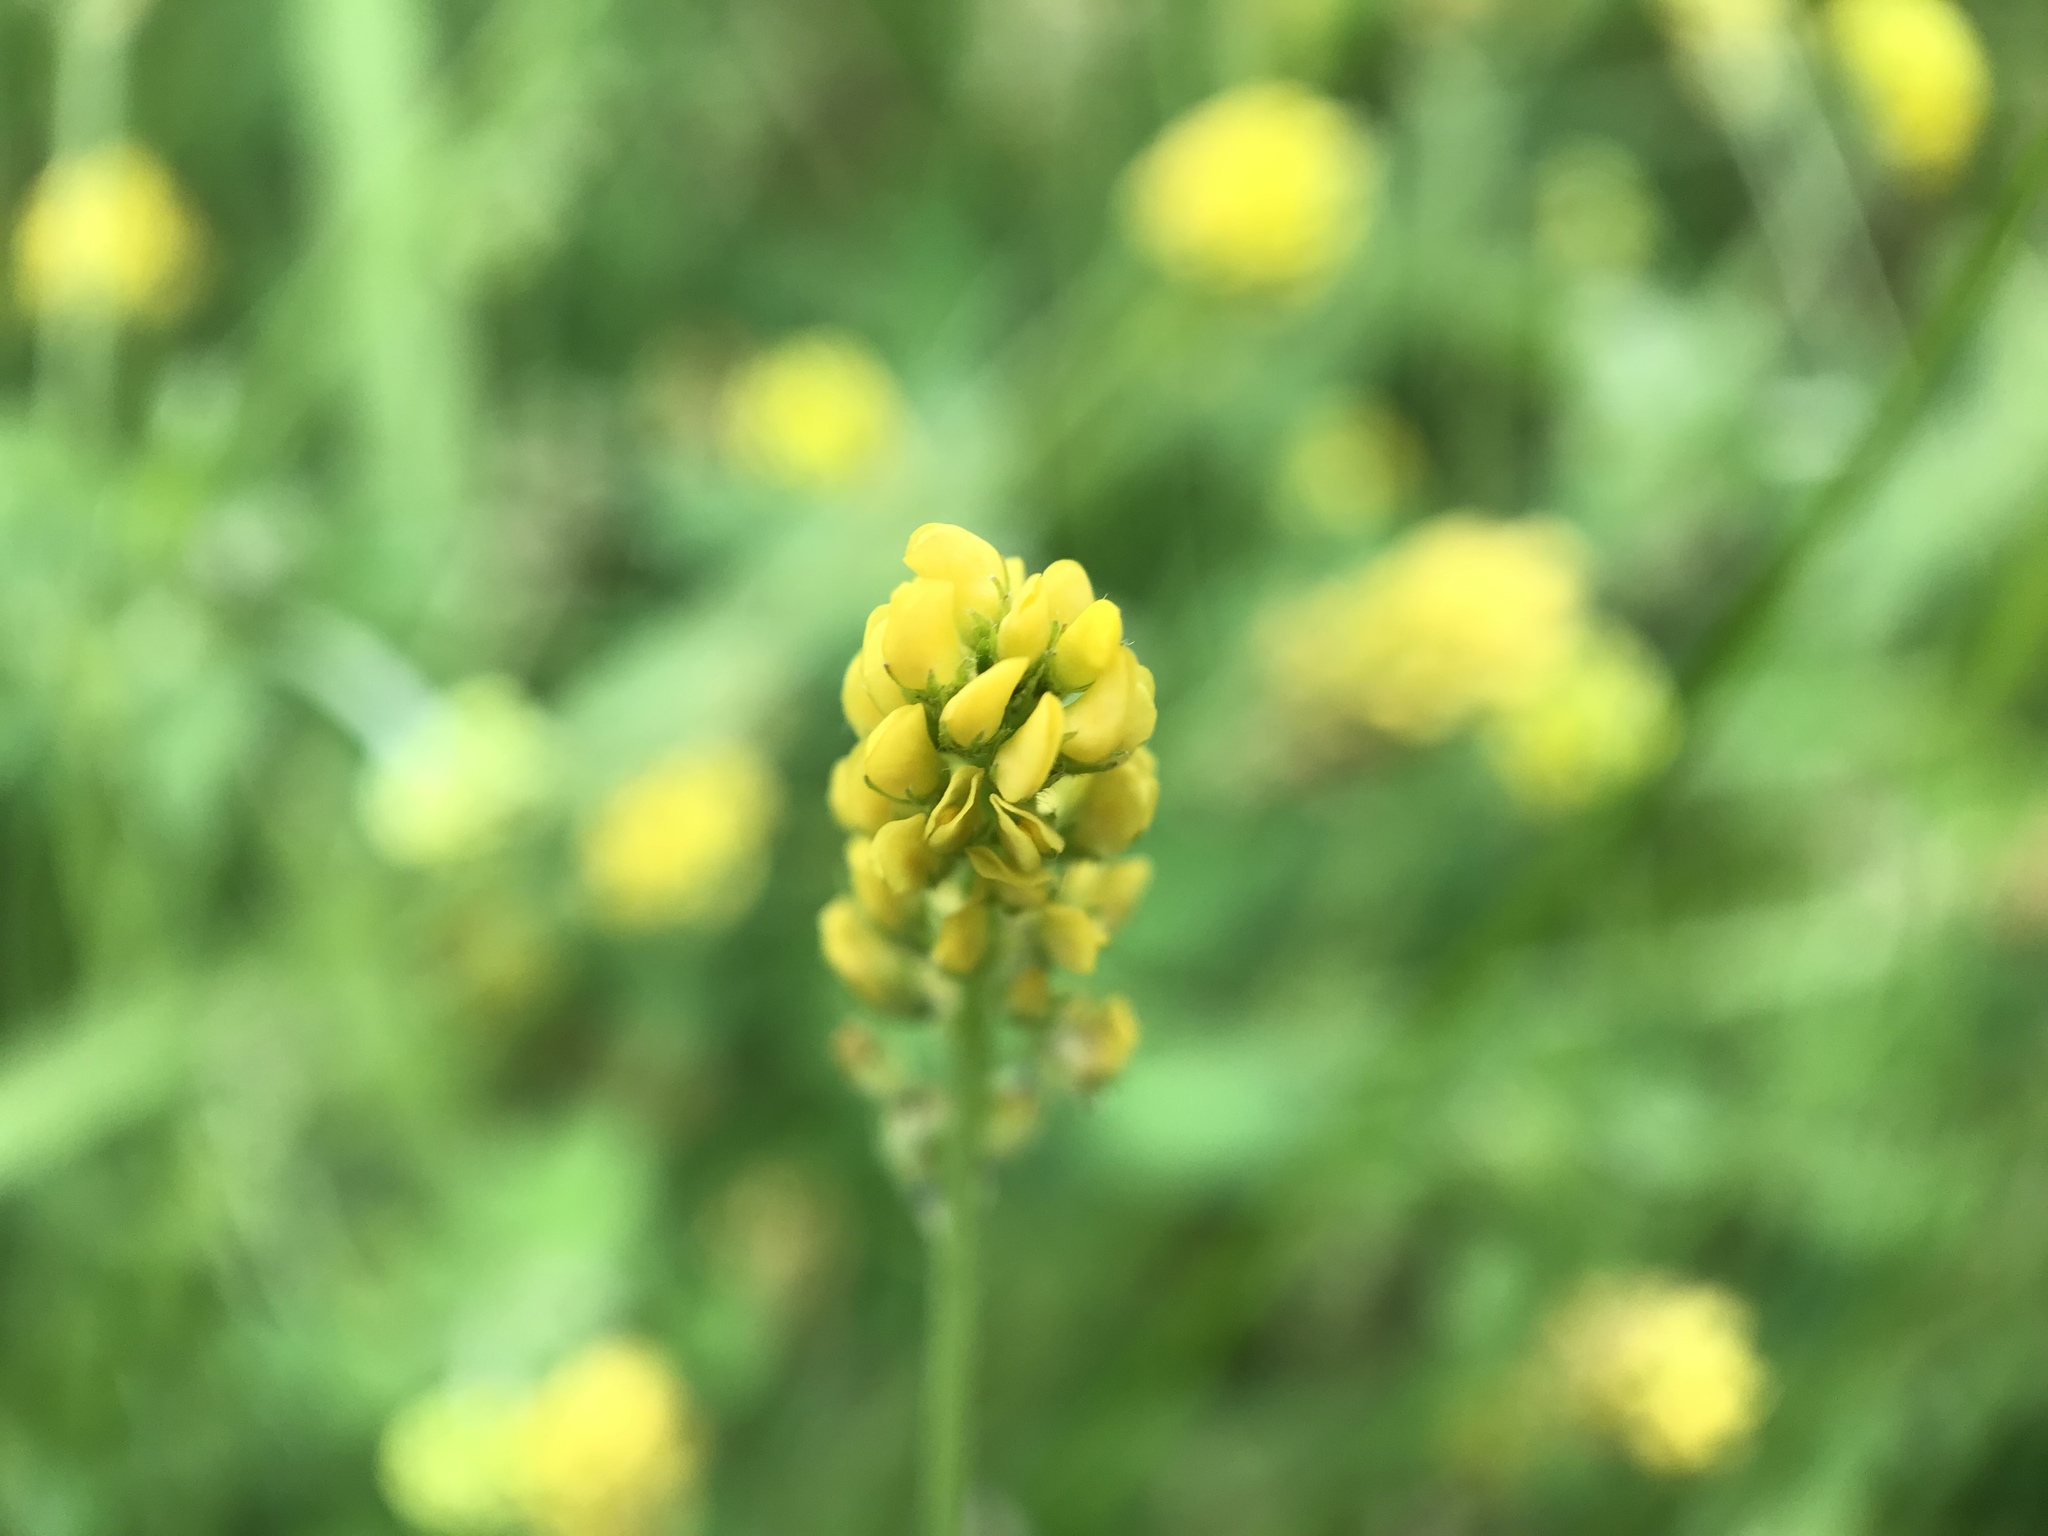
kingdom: Plantae
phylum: Tracheophyta
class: Magnoliopsida
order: Fabales
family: Fabaceae
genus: Medicago
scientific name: Medicago lupulina
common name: Black medick
